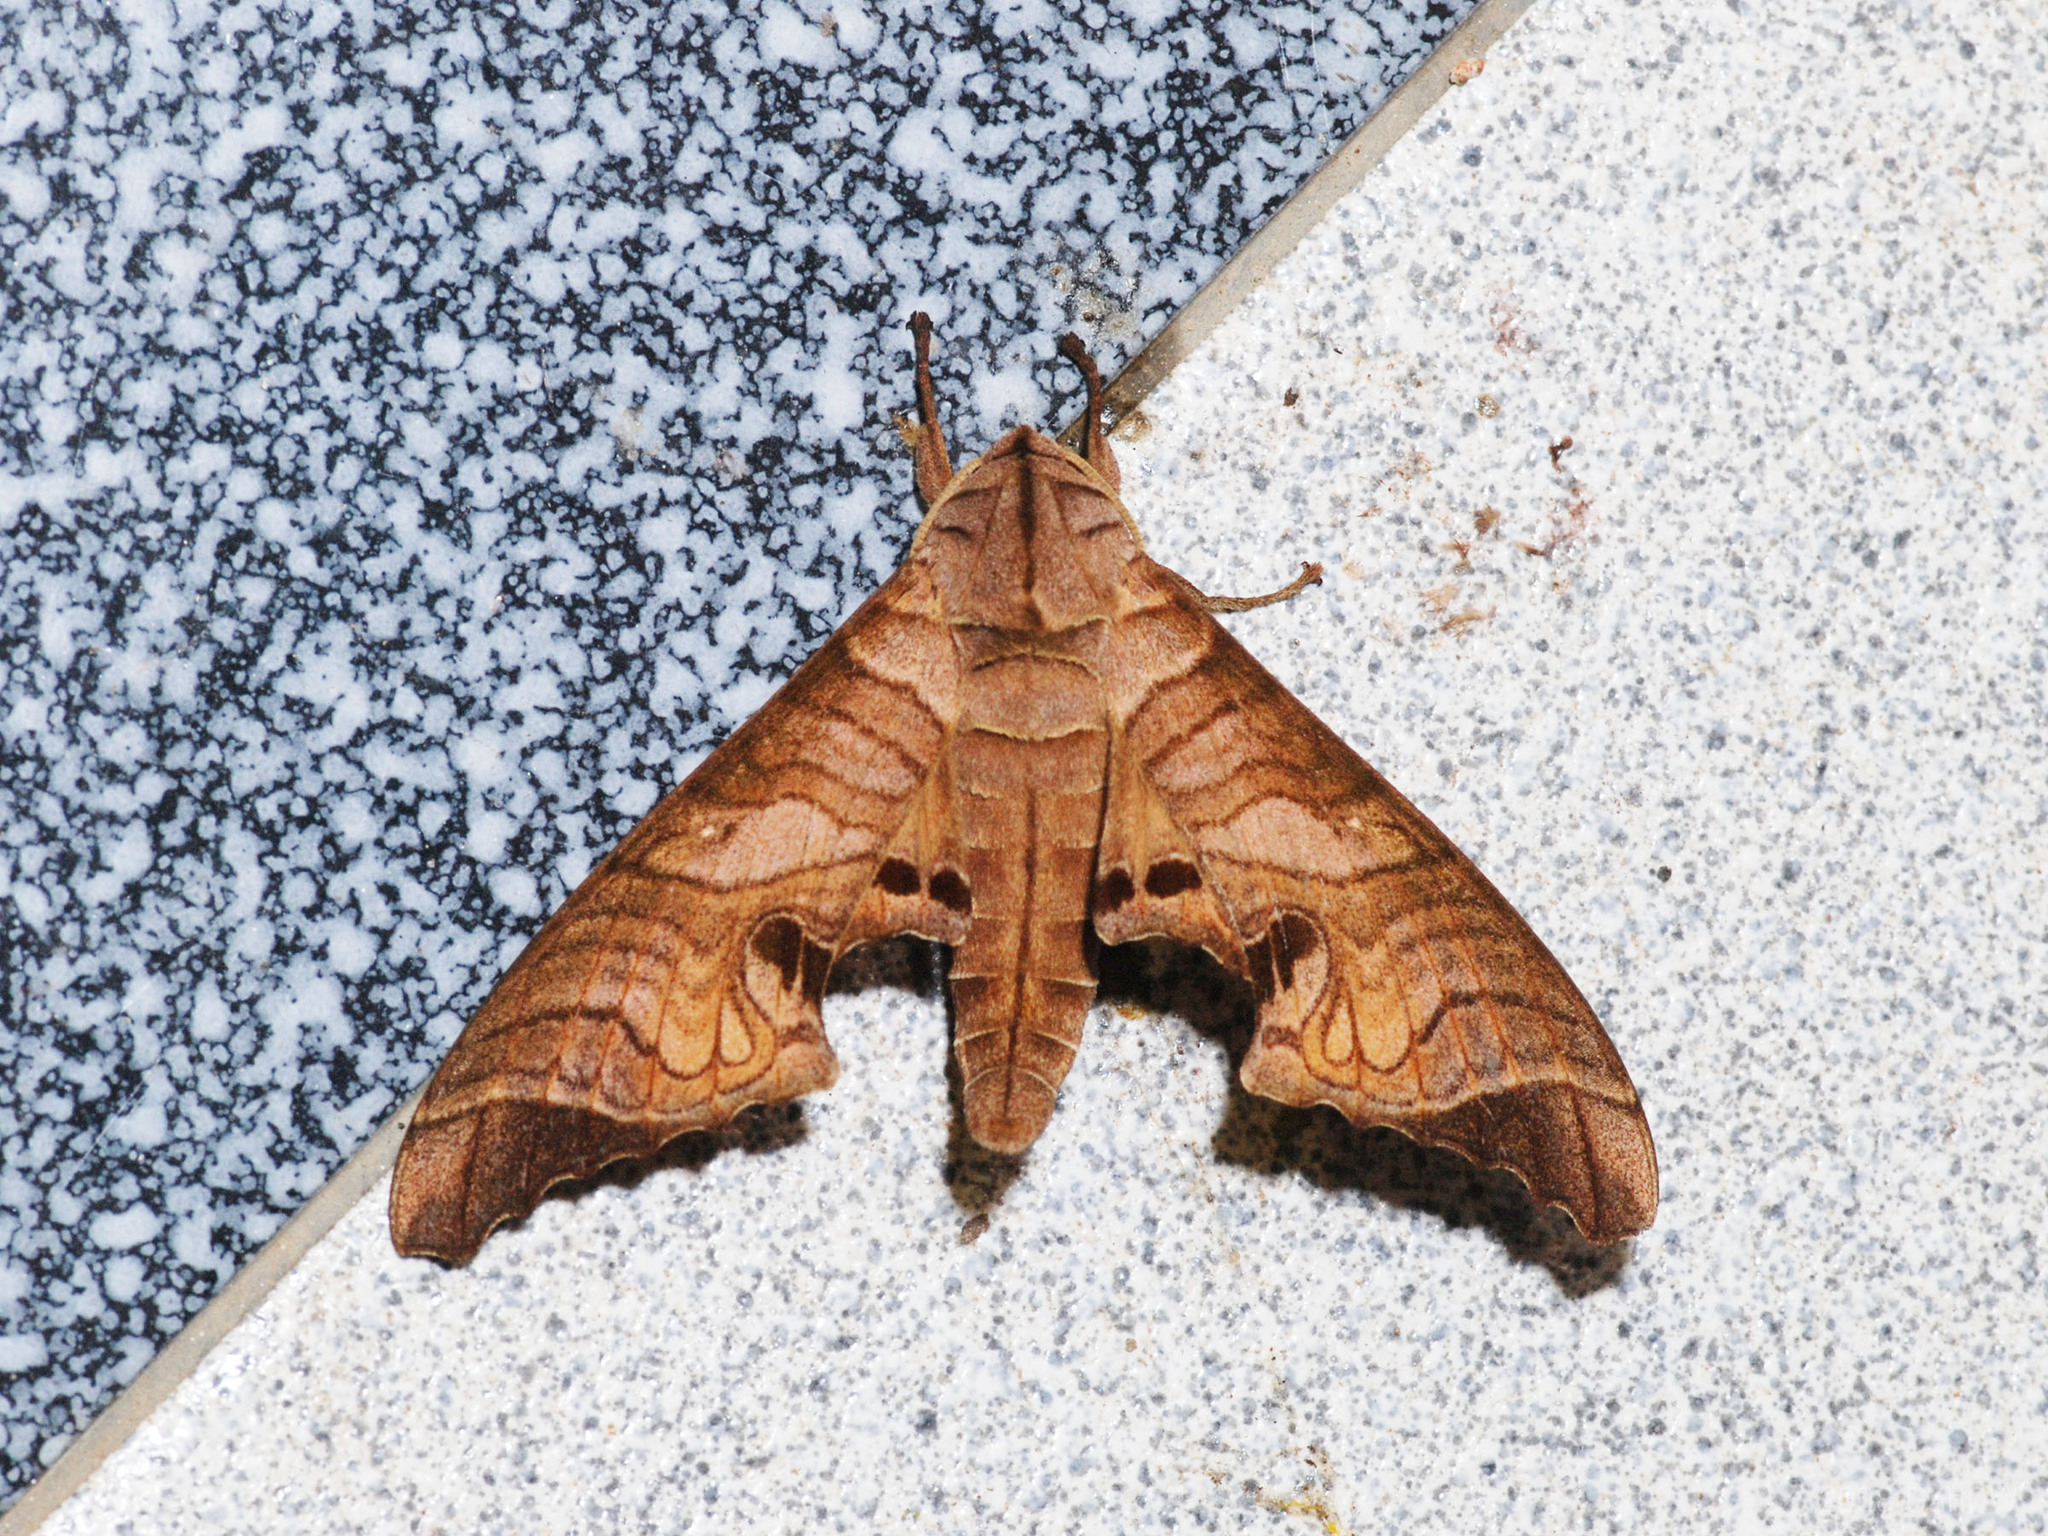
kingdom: Animalia
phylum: Arthropoda
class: Insecta
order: Lepidoptera
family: Sphingidae
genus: Marumba
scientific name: Marumba spectabilis
